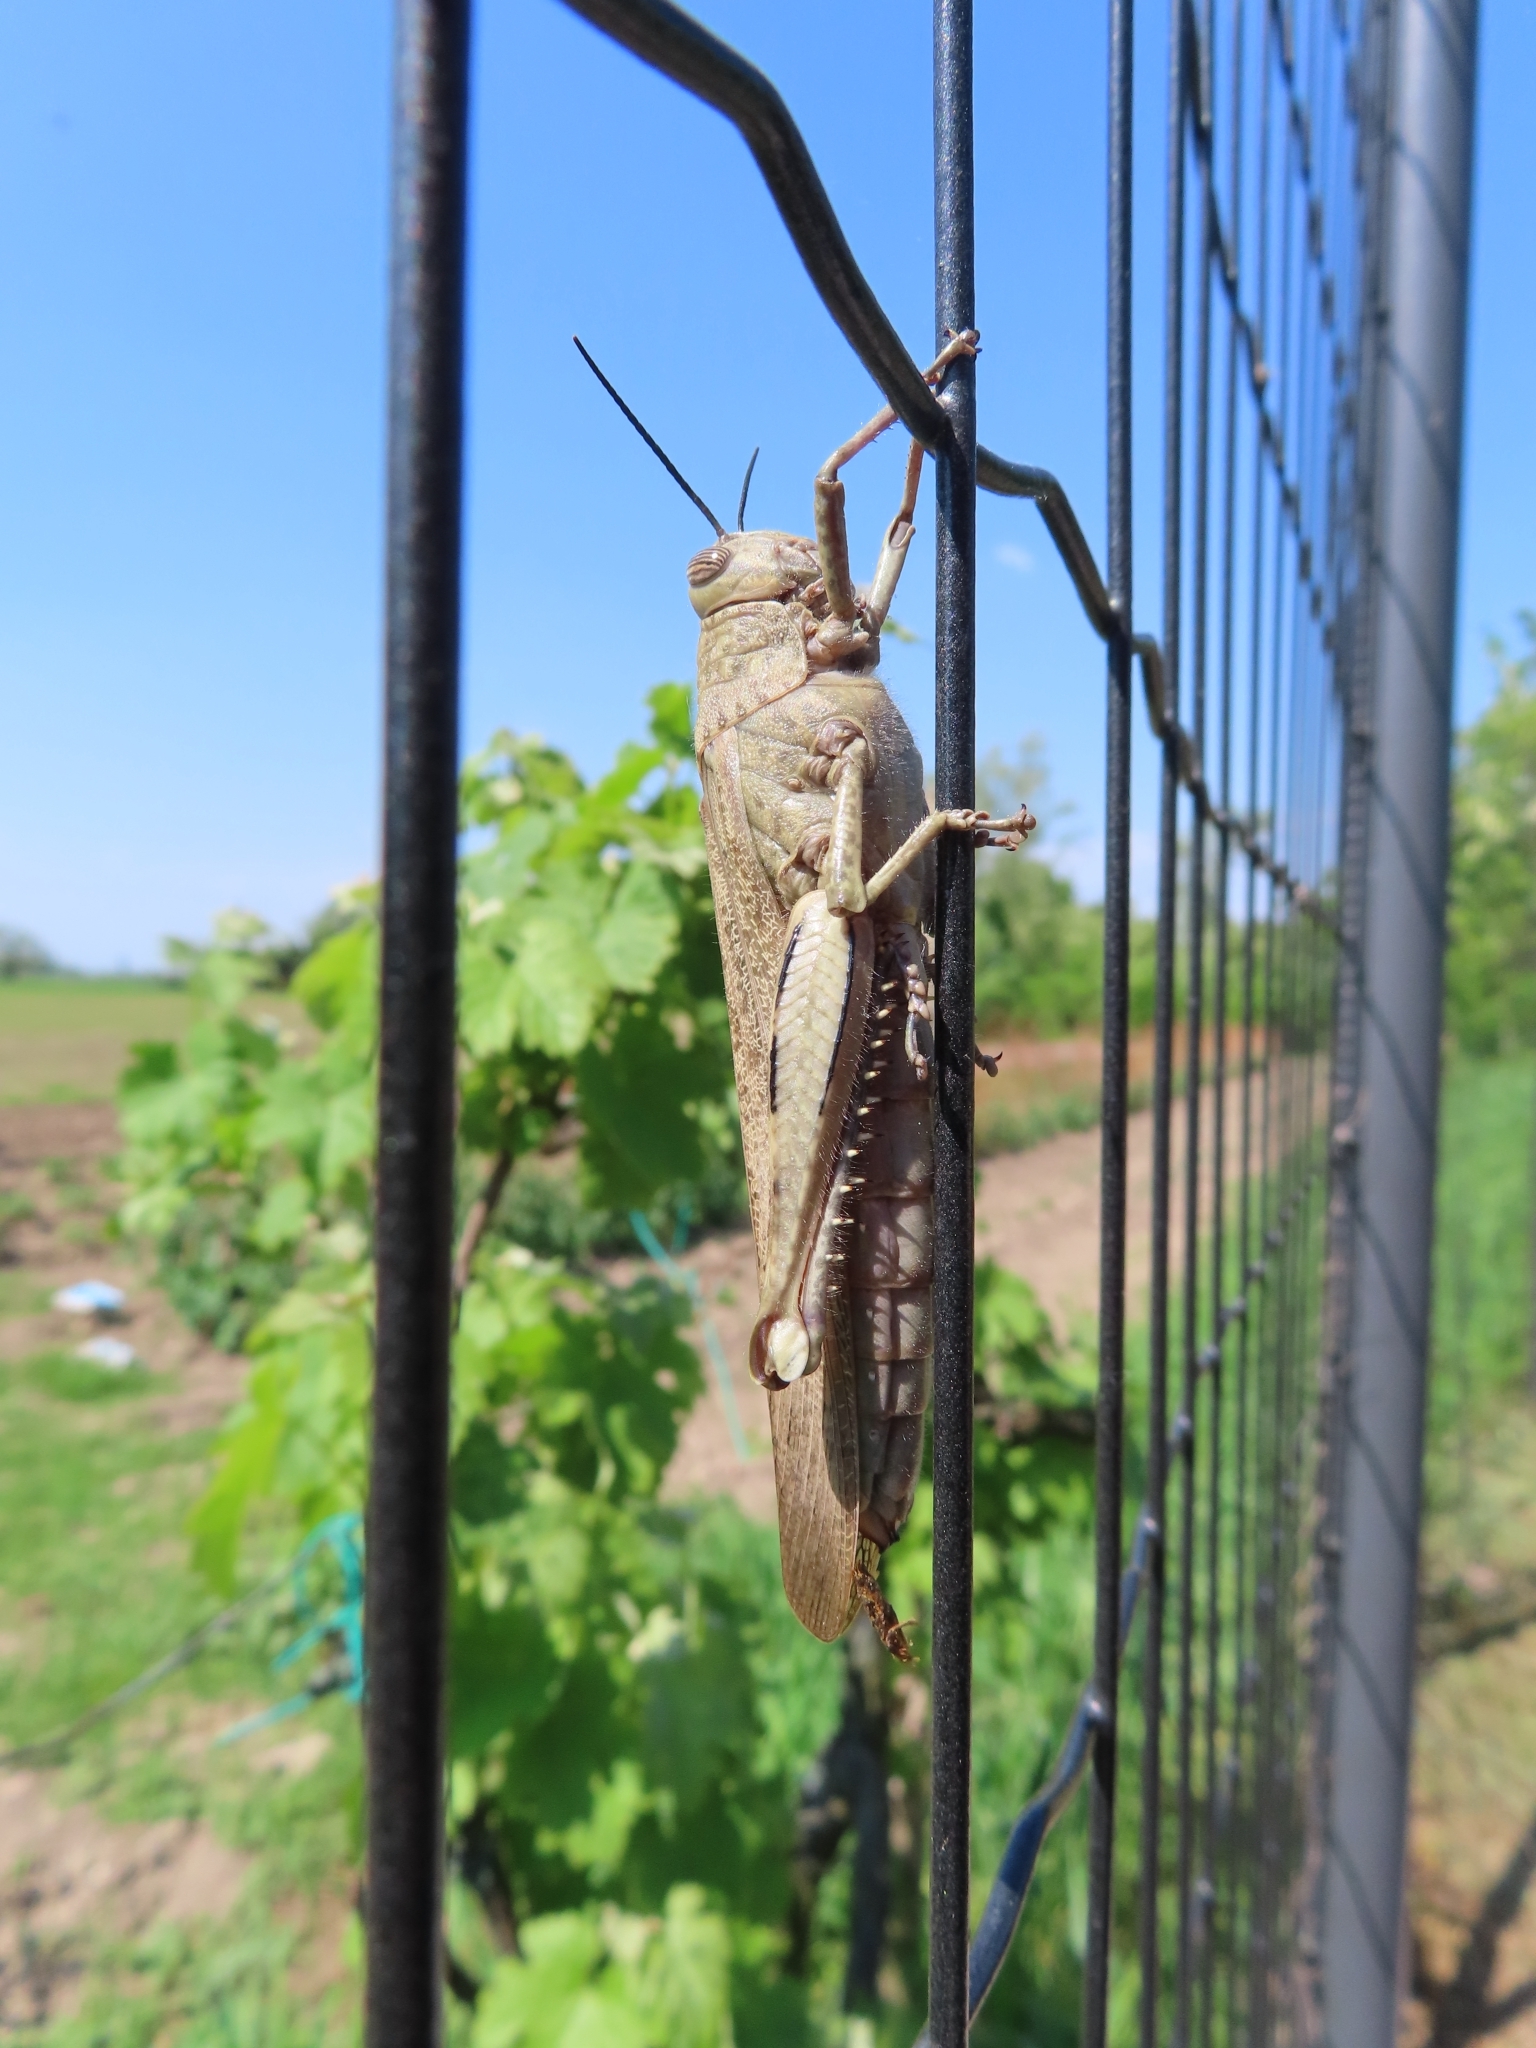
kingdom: Animalia
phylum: Arthropoda
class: Insecta
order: Orthoptera
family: Acrididae
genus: Anacridium
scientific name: Anacridium aegyptium
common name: Egyptian grasshopper
